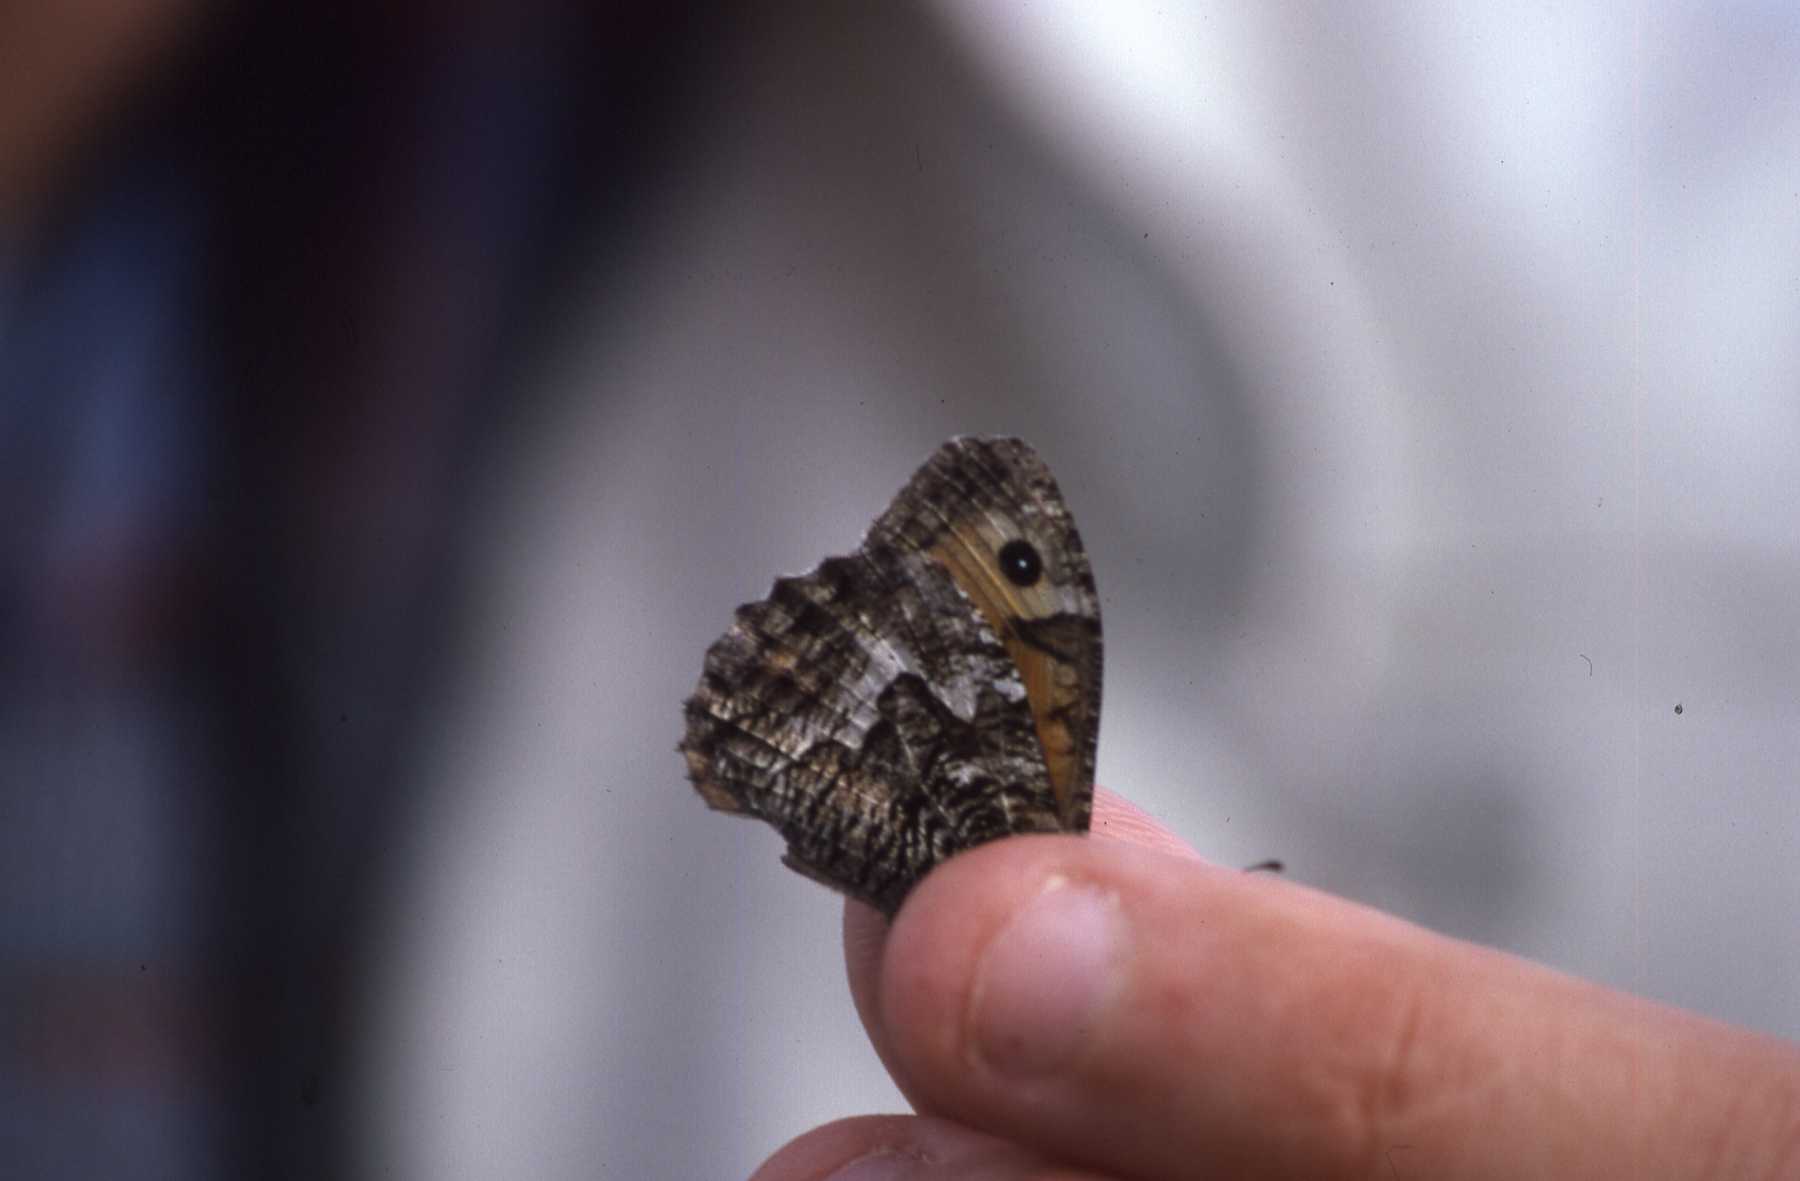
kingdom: Animalia
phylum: Arthropoda
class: Insecta
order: Lepidoptera
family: Nymphalidae
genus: Hipparchia
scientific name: Hipparchia semele
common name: Grayling
